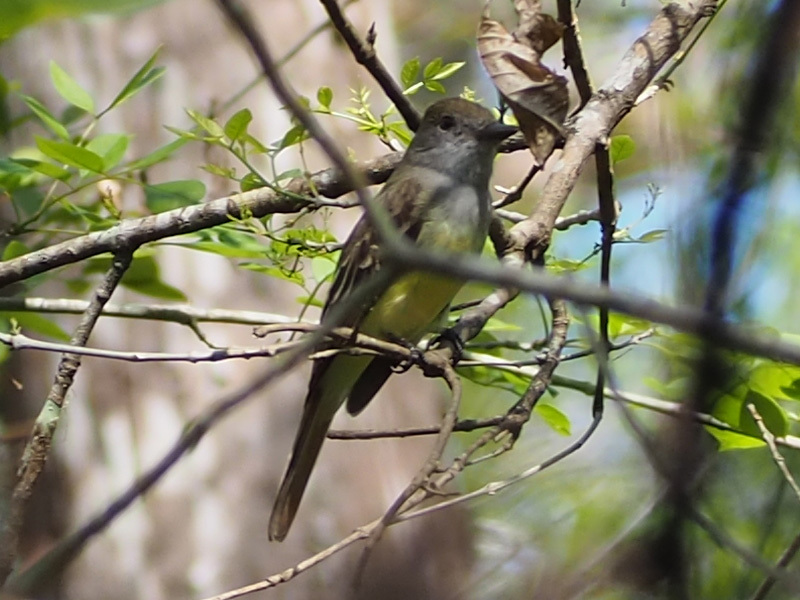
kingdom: Animalia
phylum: Chordata
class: Aves
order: Passeriformes
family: Tyrannidae
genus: Myiarchus
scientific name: Myiarchus crinitus
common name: Great crested flycatcher
